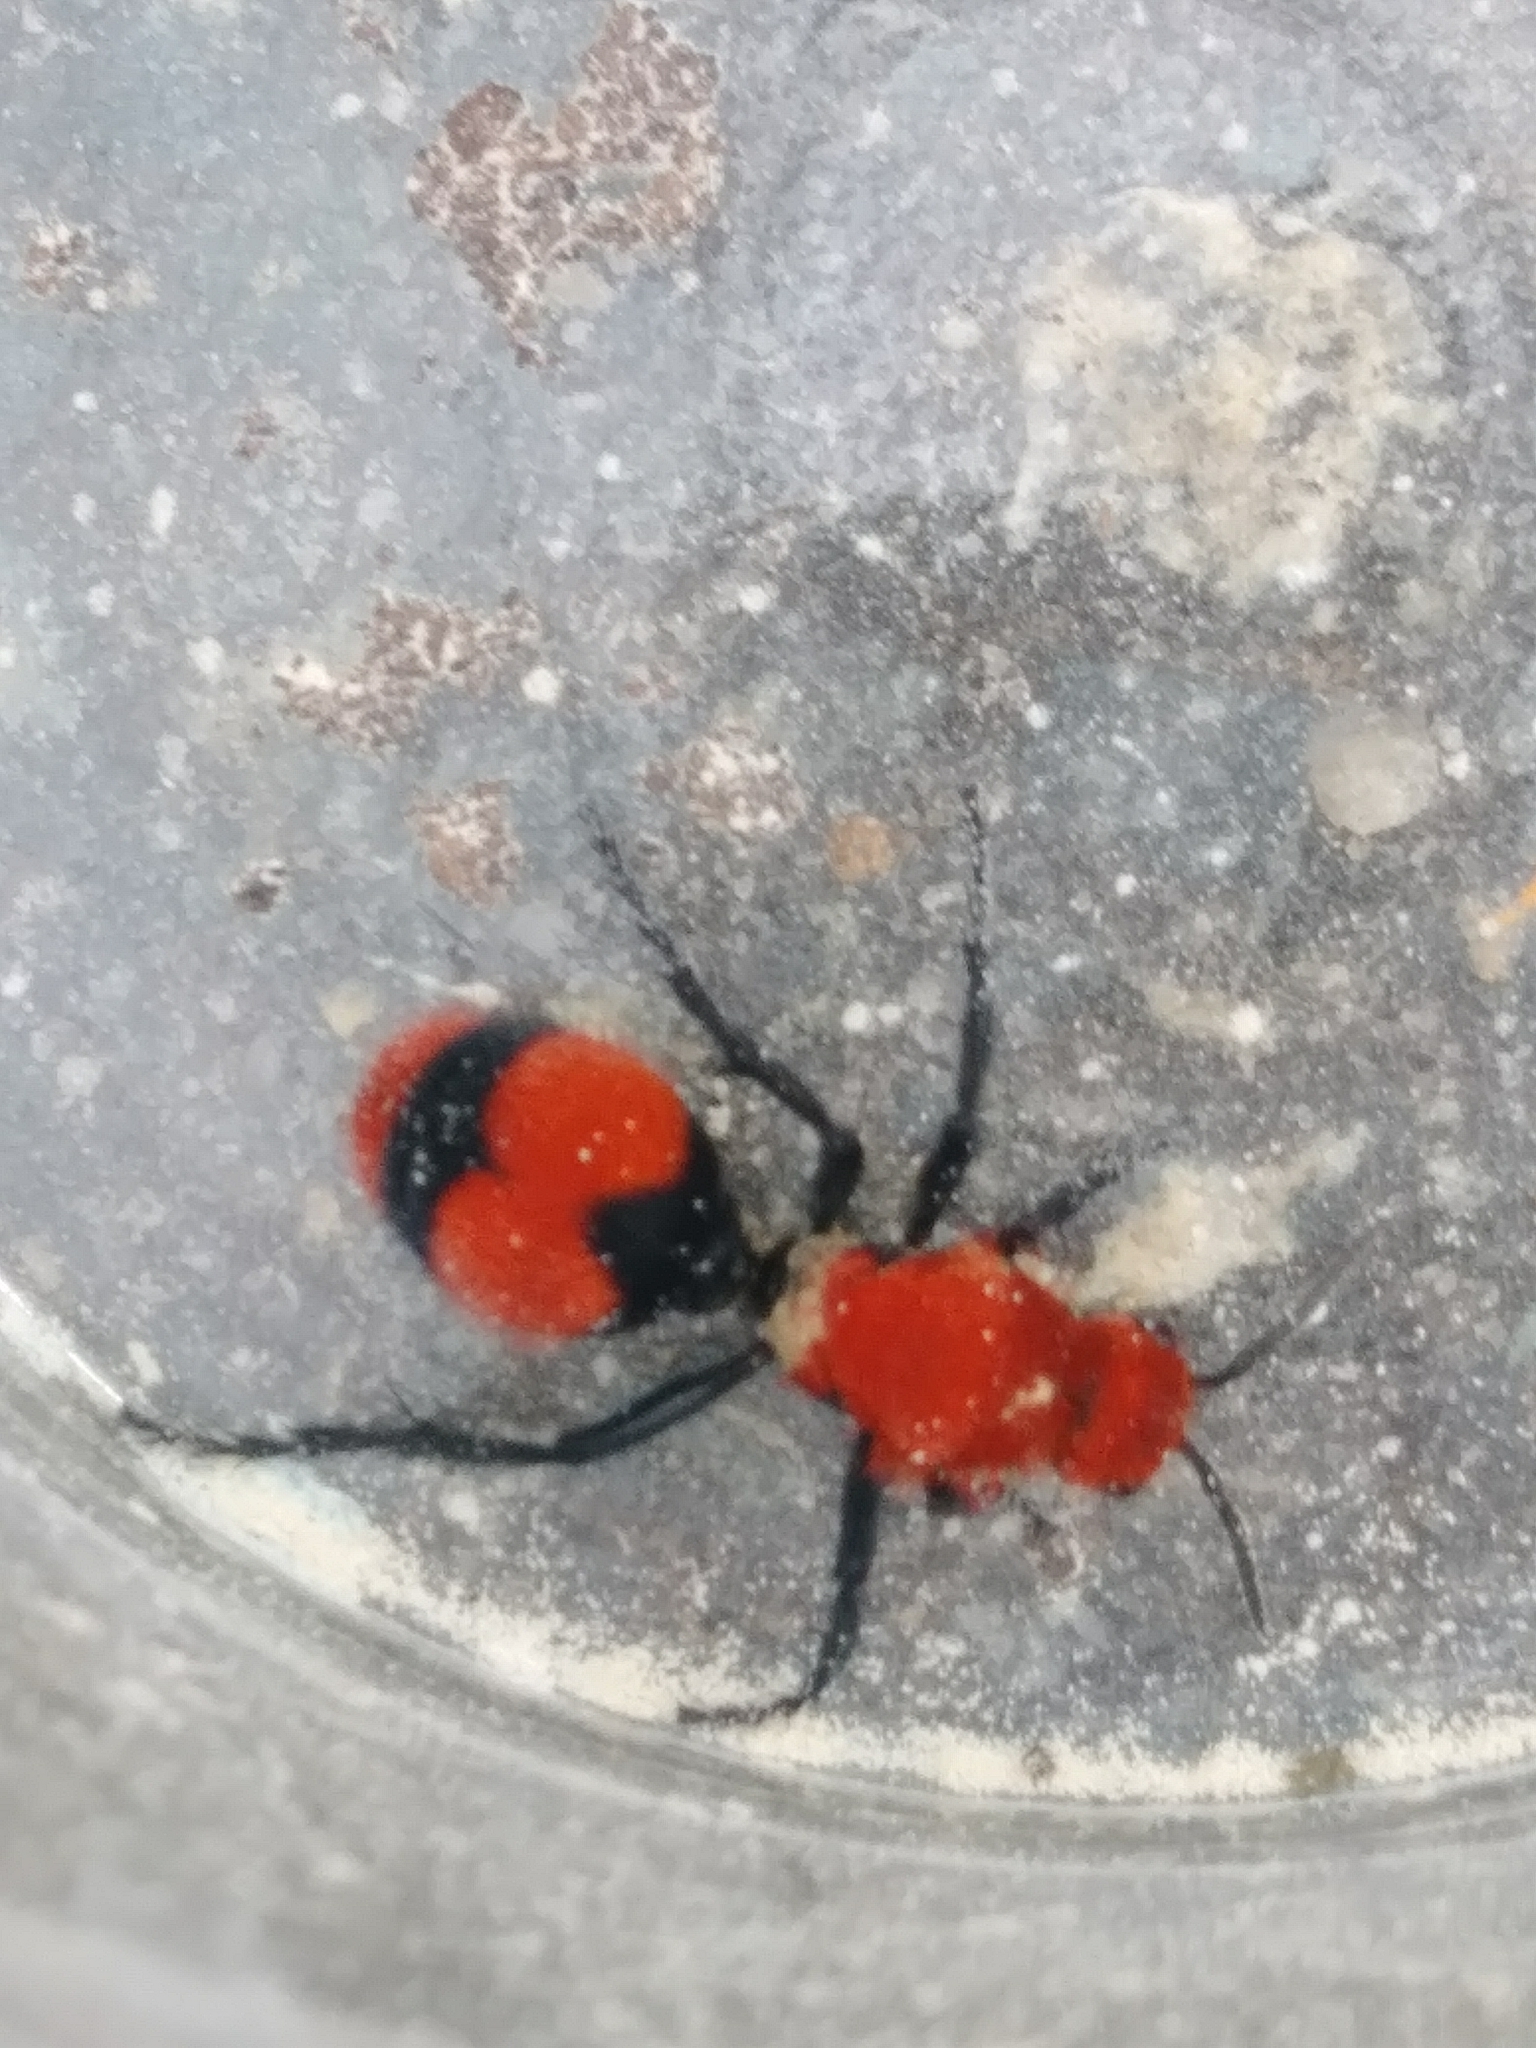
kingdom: Animalia
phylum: Arthropoda
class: Insecta
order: Hymenoptera
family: Mutillidae
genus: Dasymutilla
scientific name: Dasymutilla occidentalis
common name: Common eastern velvet ant
